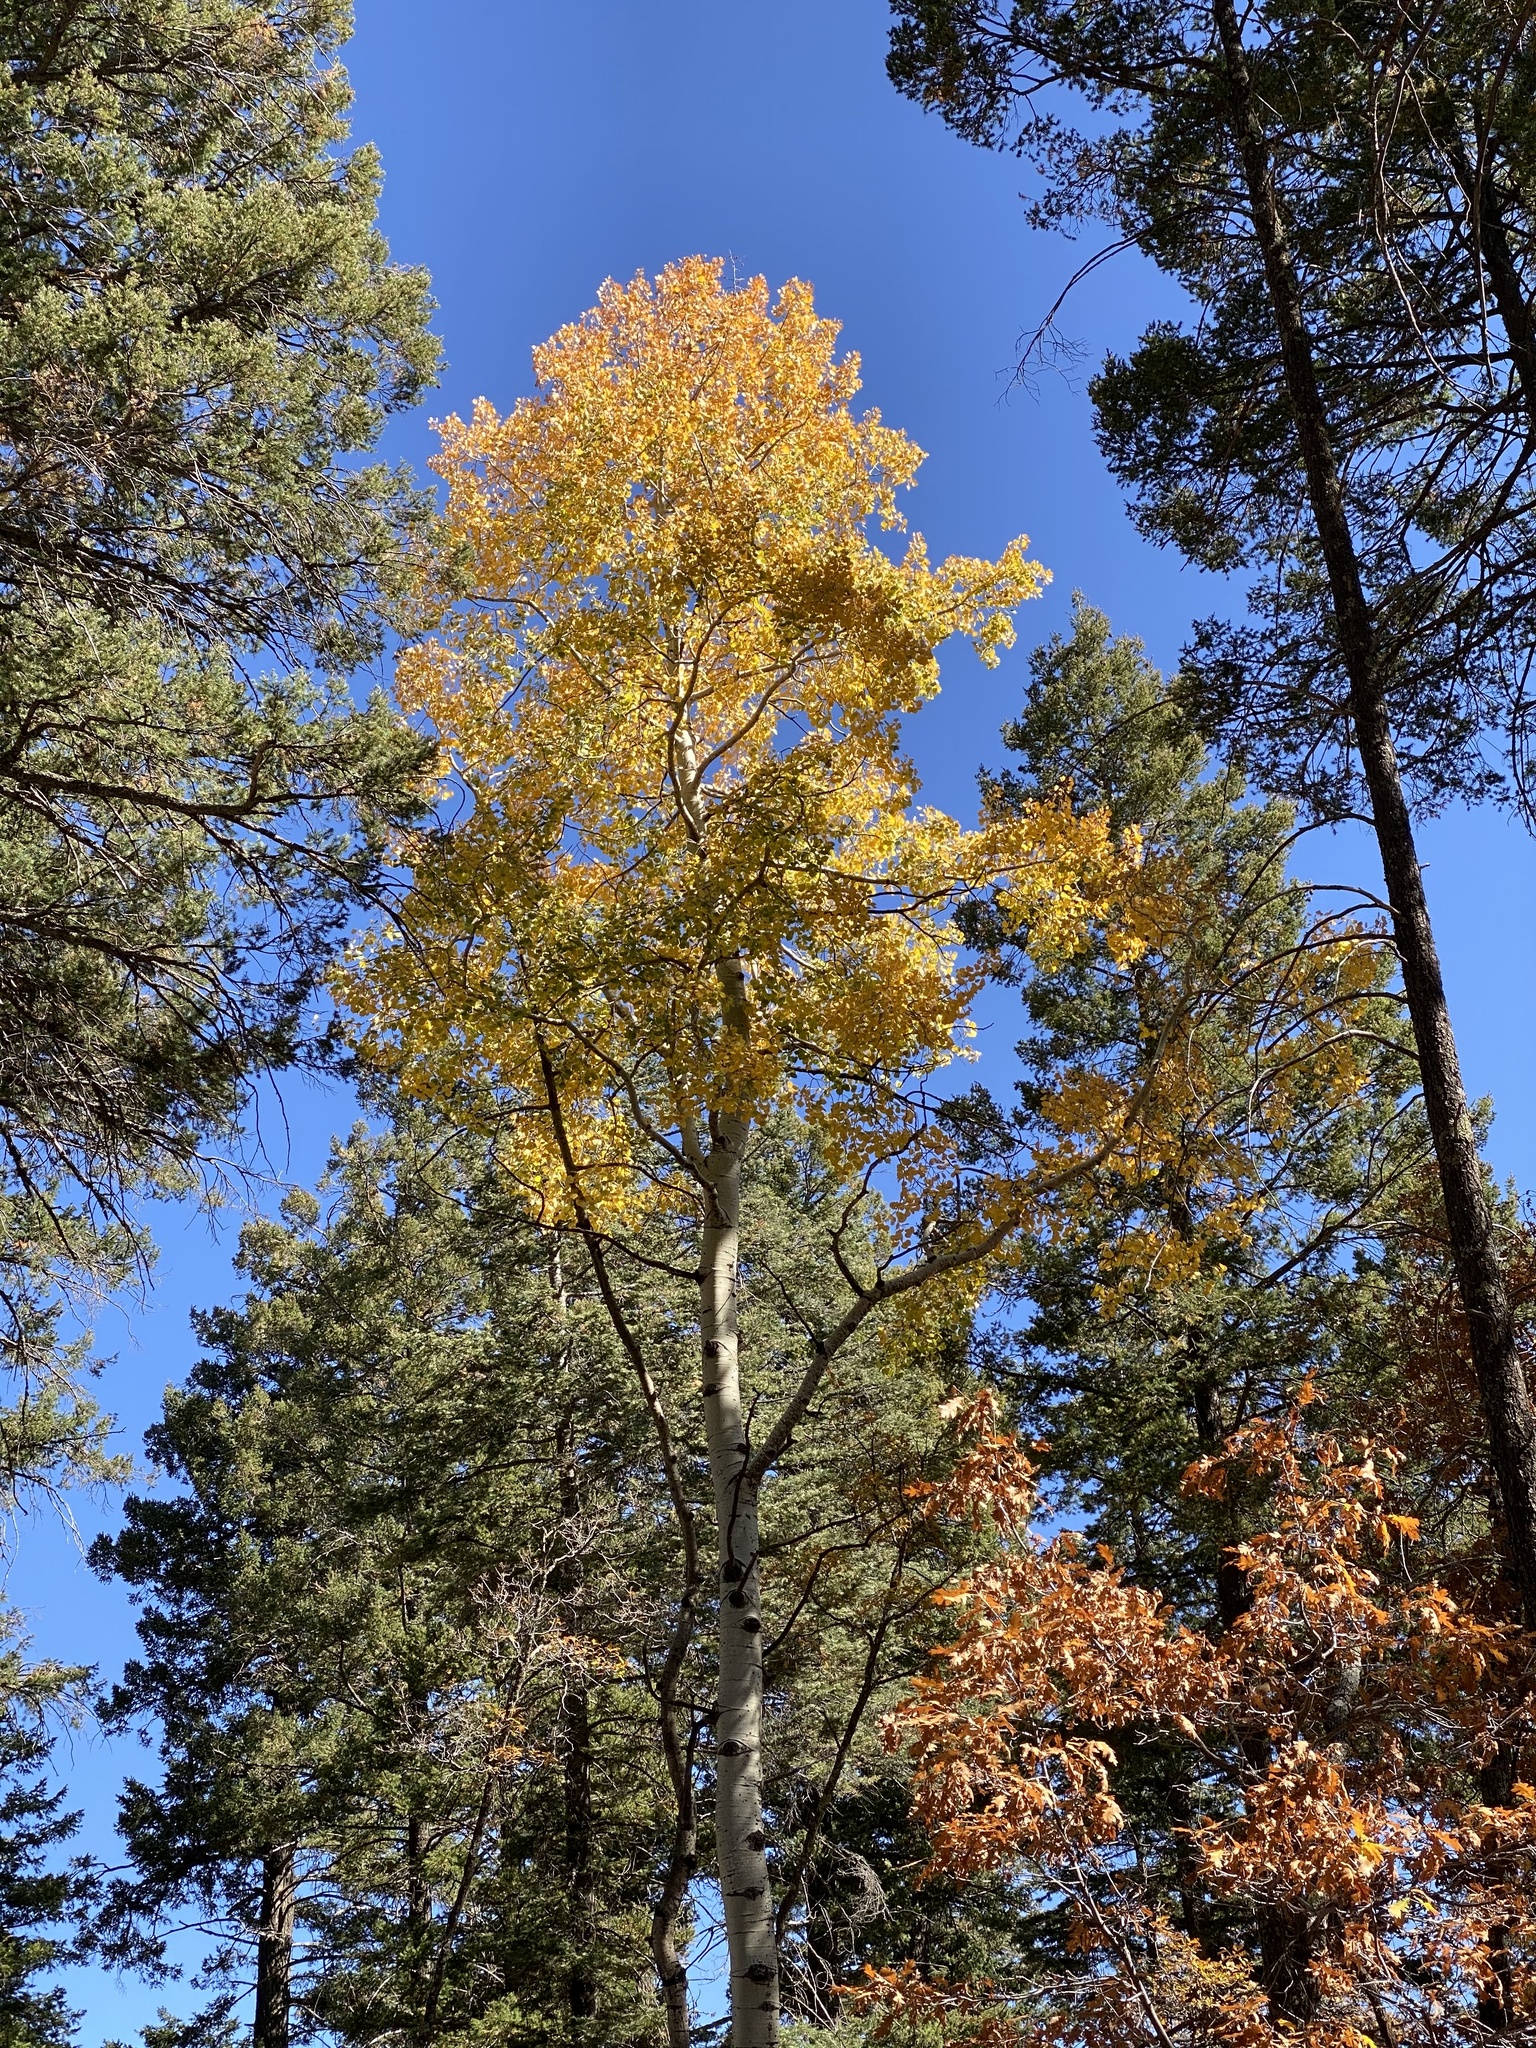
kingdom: Plantae
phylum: Tracheophyta
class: Magnoliopsida
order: Malpighiales
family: Salicaceae
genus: Populus
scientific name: Populus tremuloides
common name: Quaking aspen
